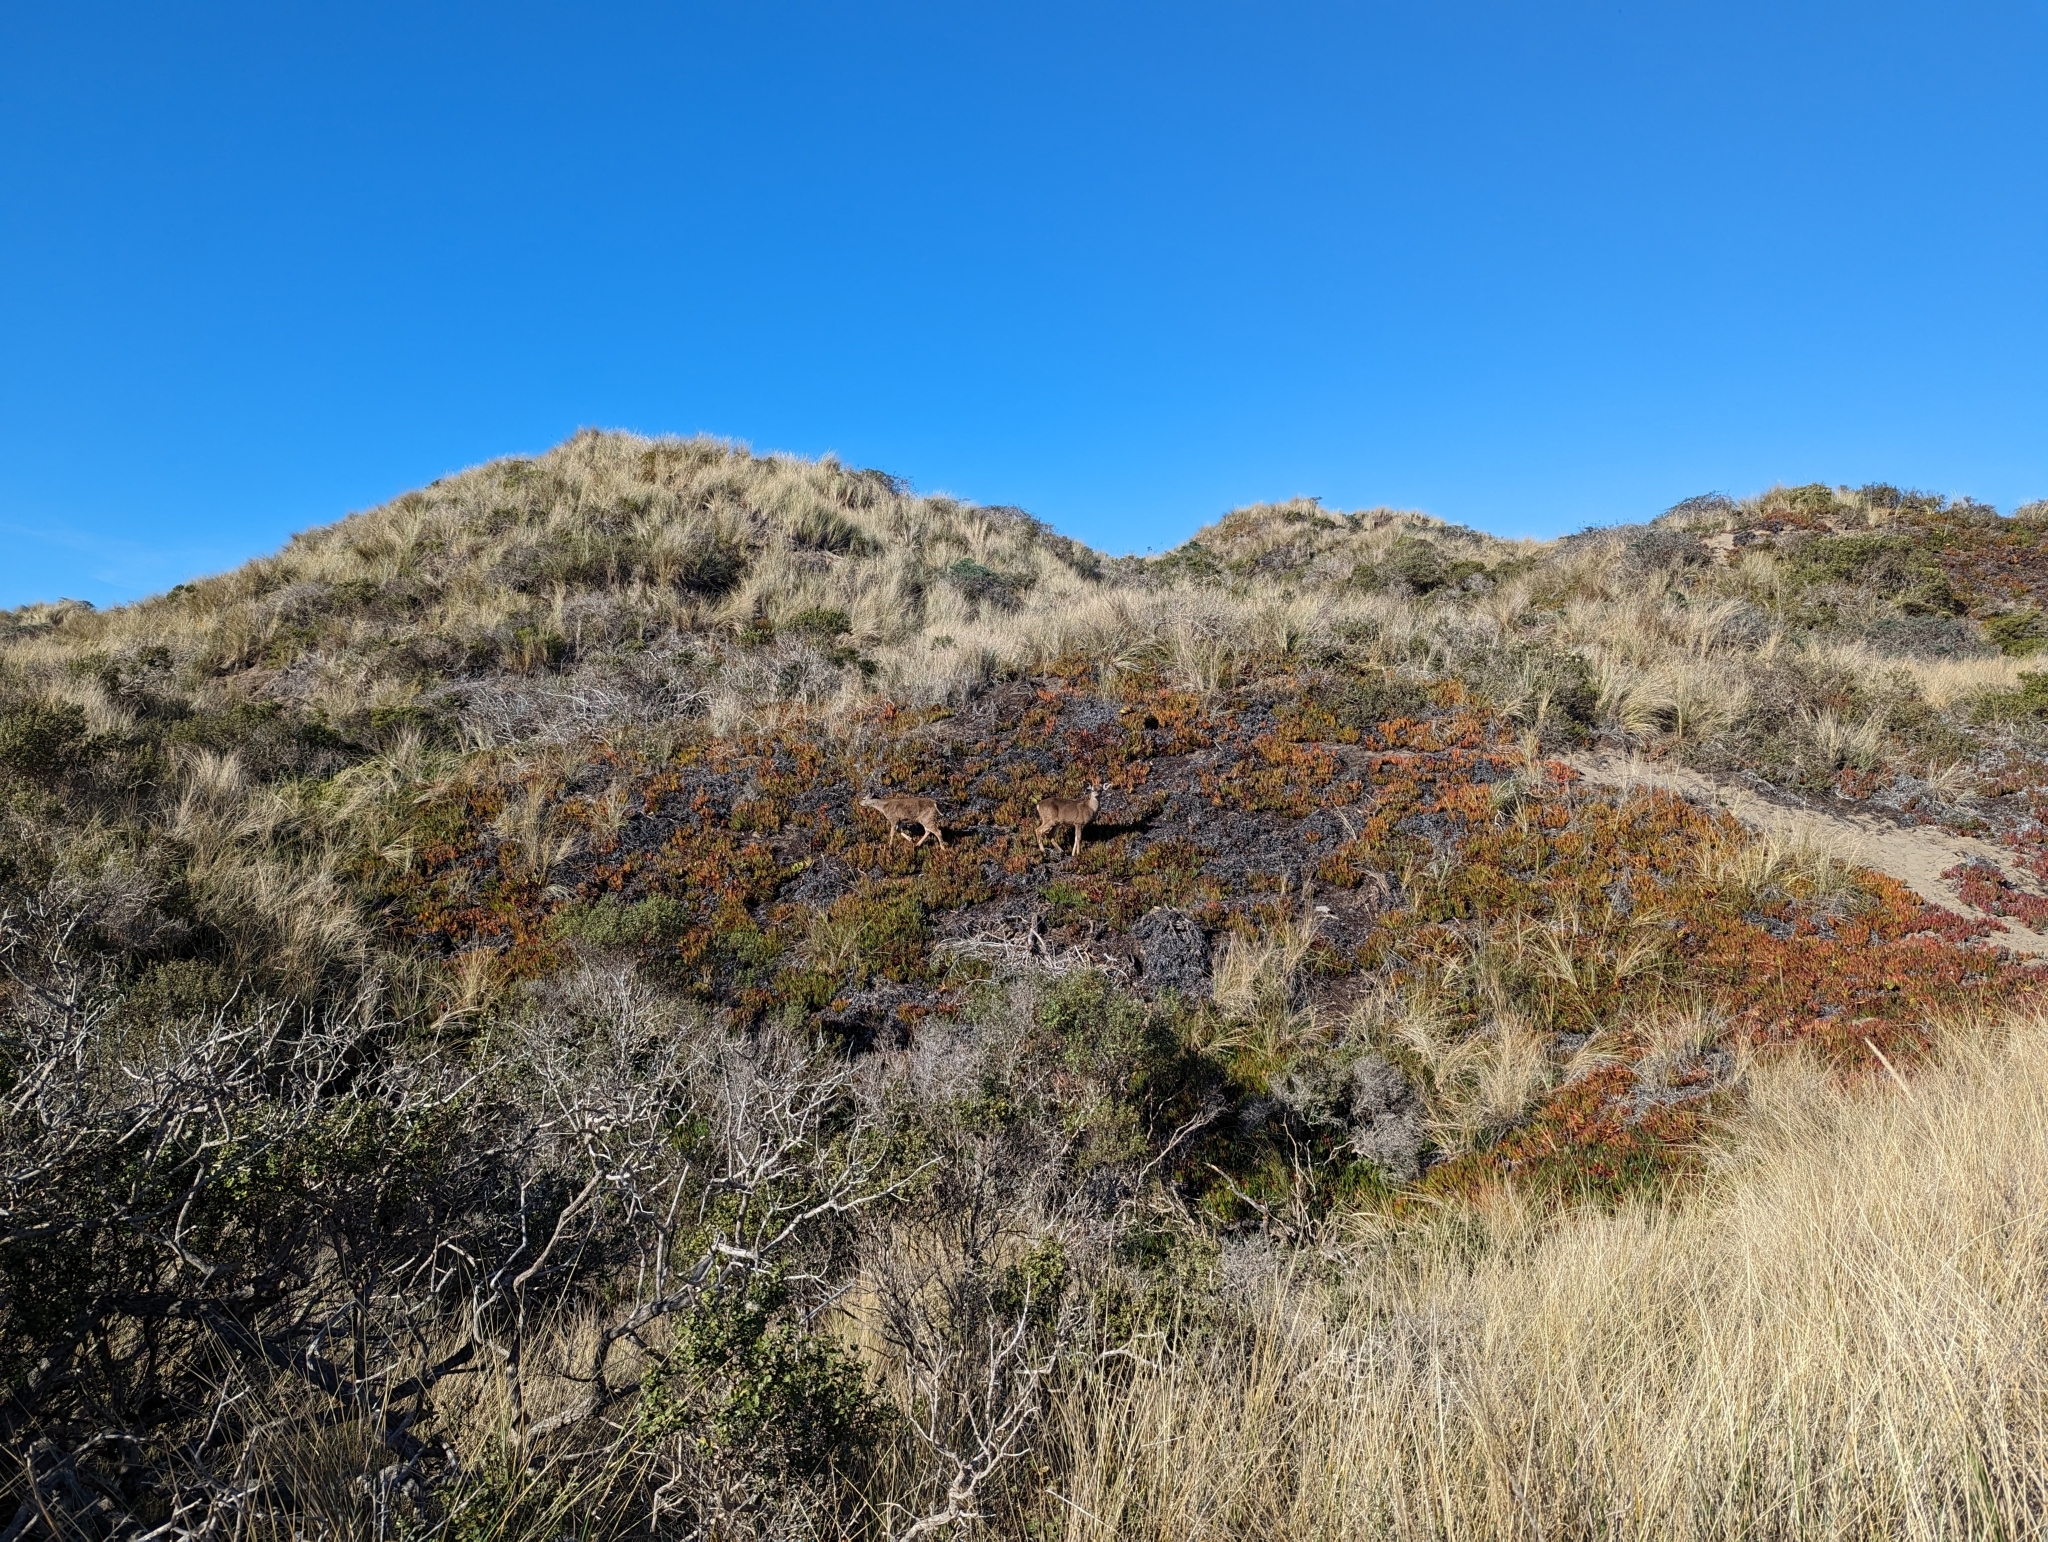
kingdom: Animalia
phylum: Chordata
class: Mammalia
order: Artiodactyla
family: Cervidae
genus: Odocoileus
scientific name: Odocoileus hemionus
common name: Mule deer
